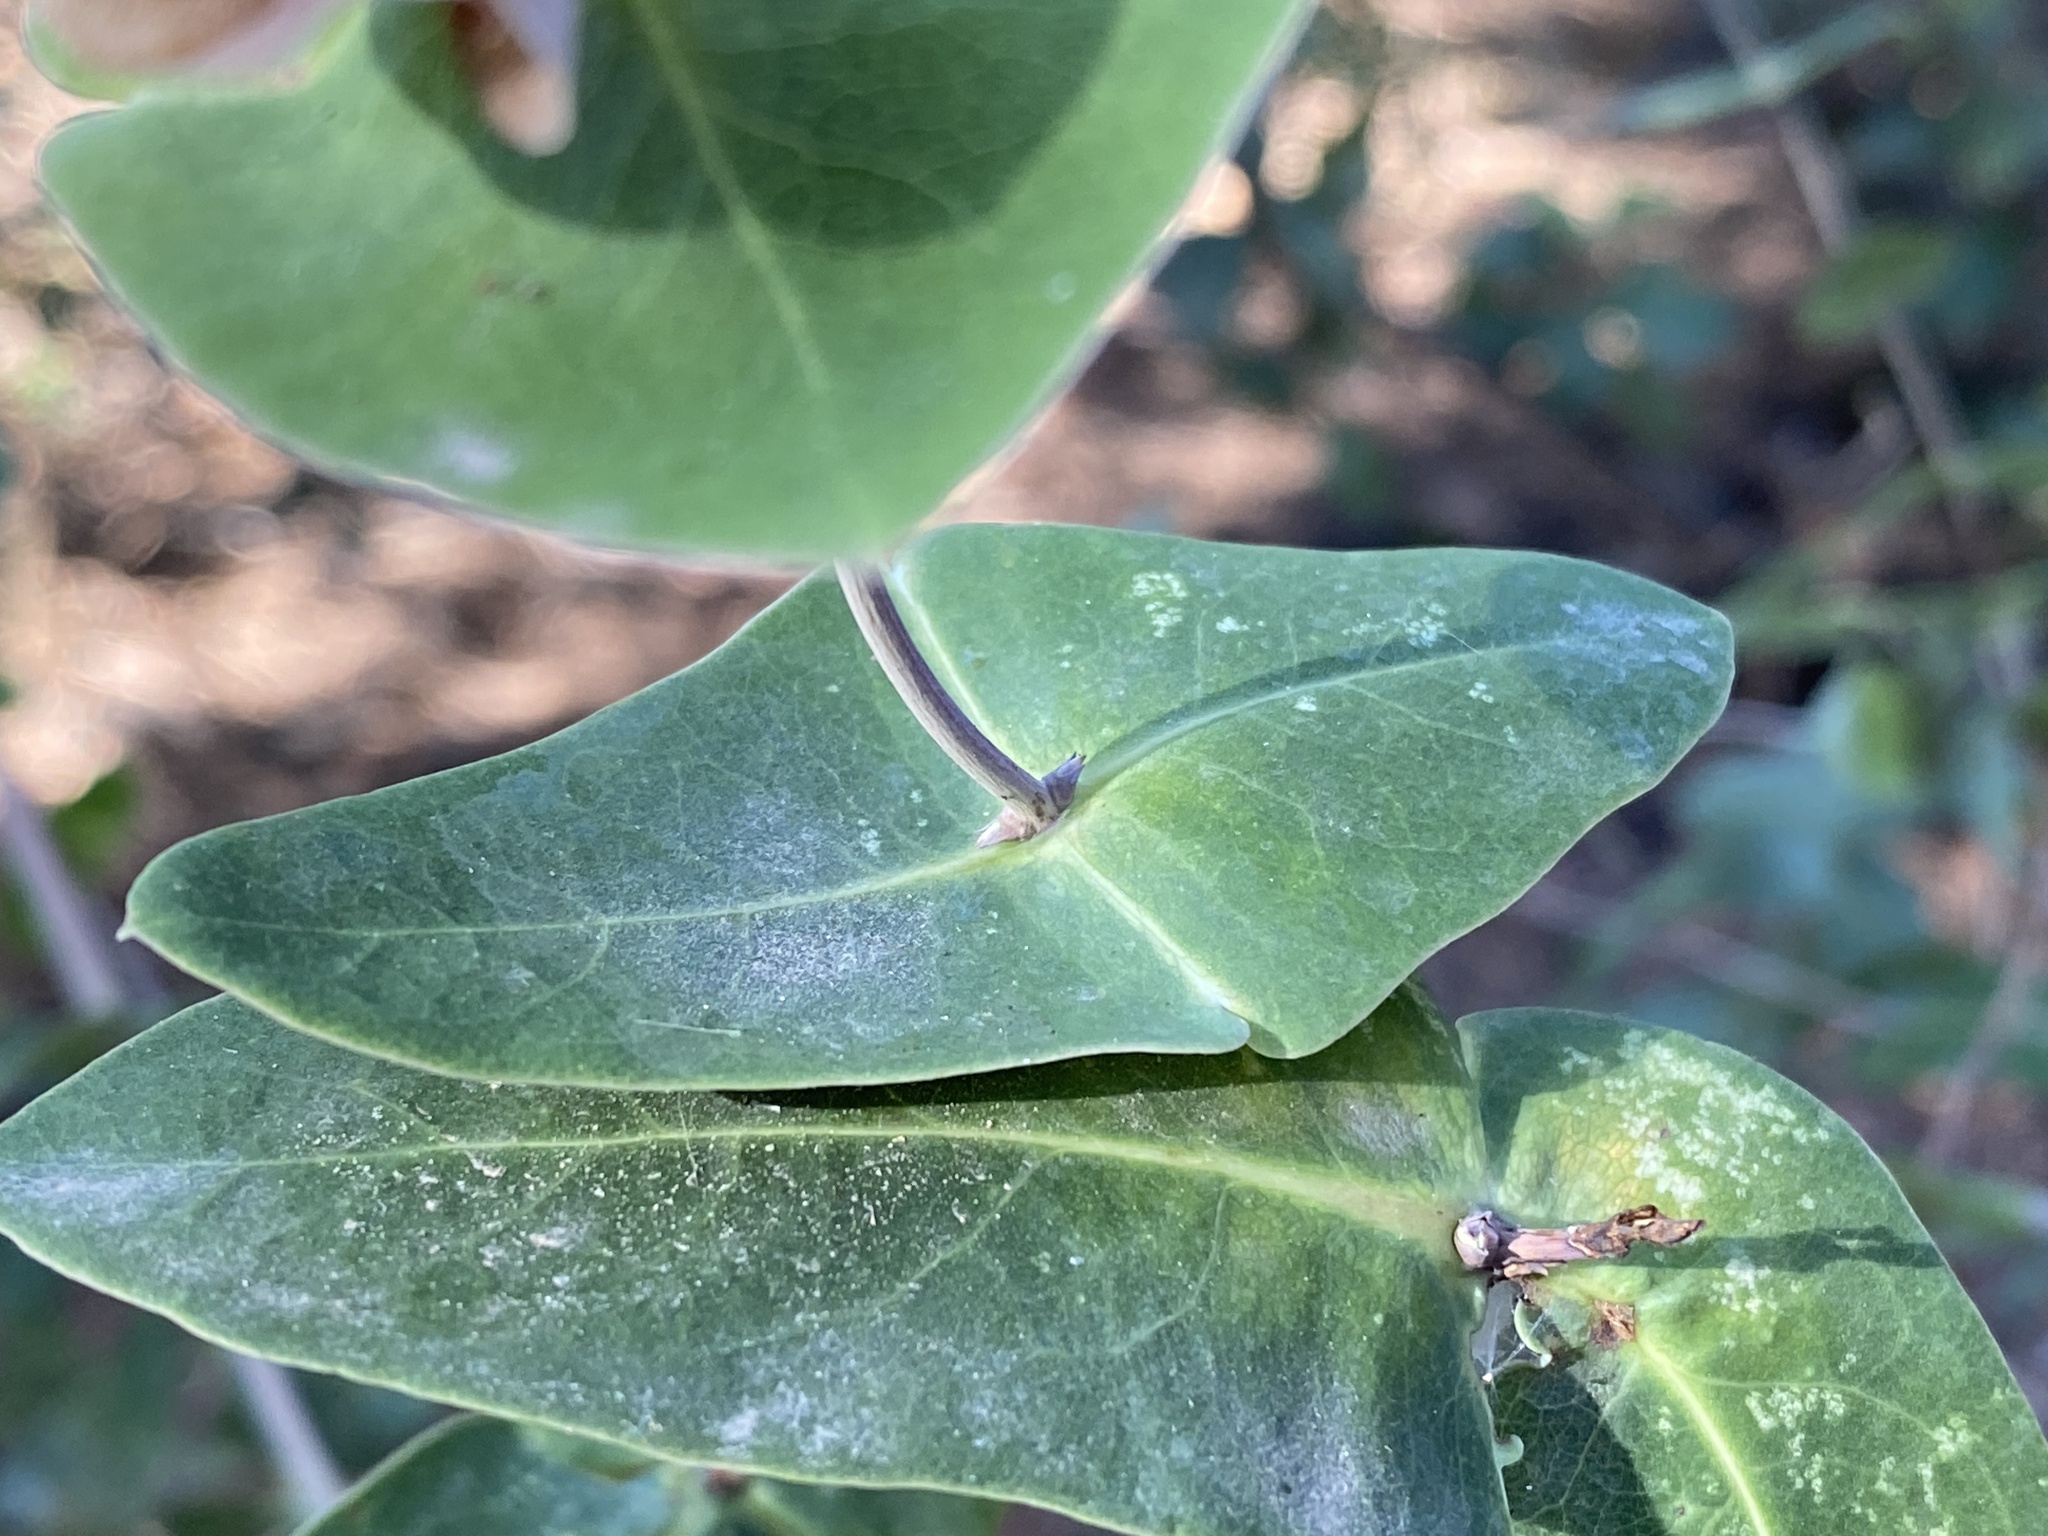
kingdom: Plantae
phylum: Tracheophyta
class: Magnoliopsida
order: Dipsacales
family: Caprifoliaceae
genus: Lonicera
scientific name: Lonicera implexa
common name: Minorca honeysuckle
